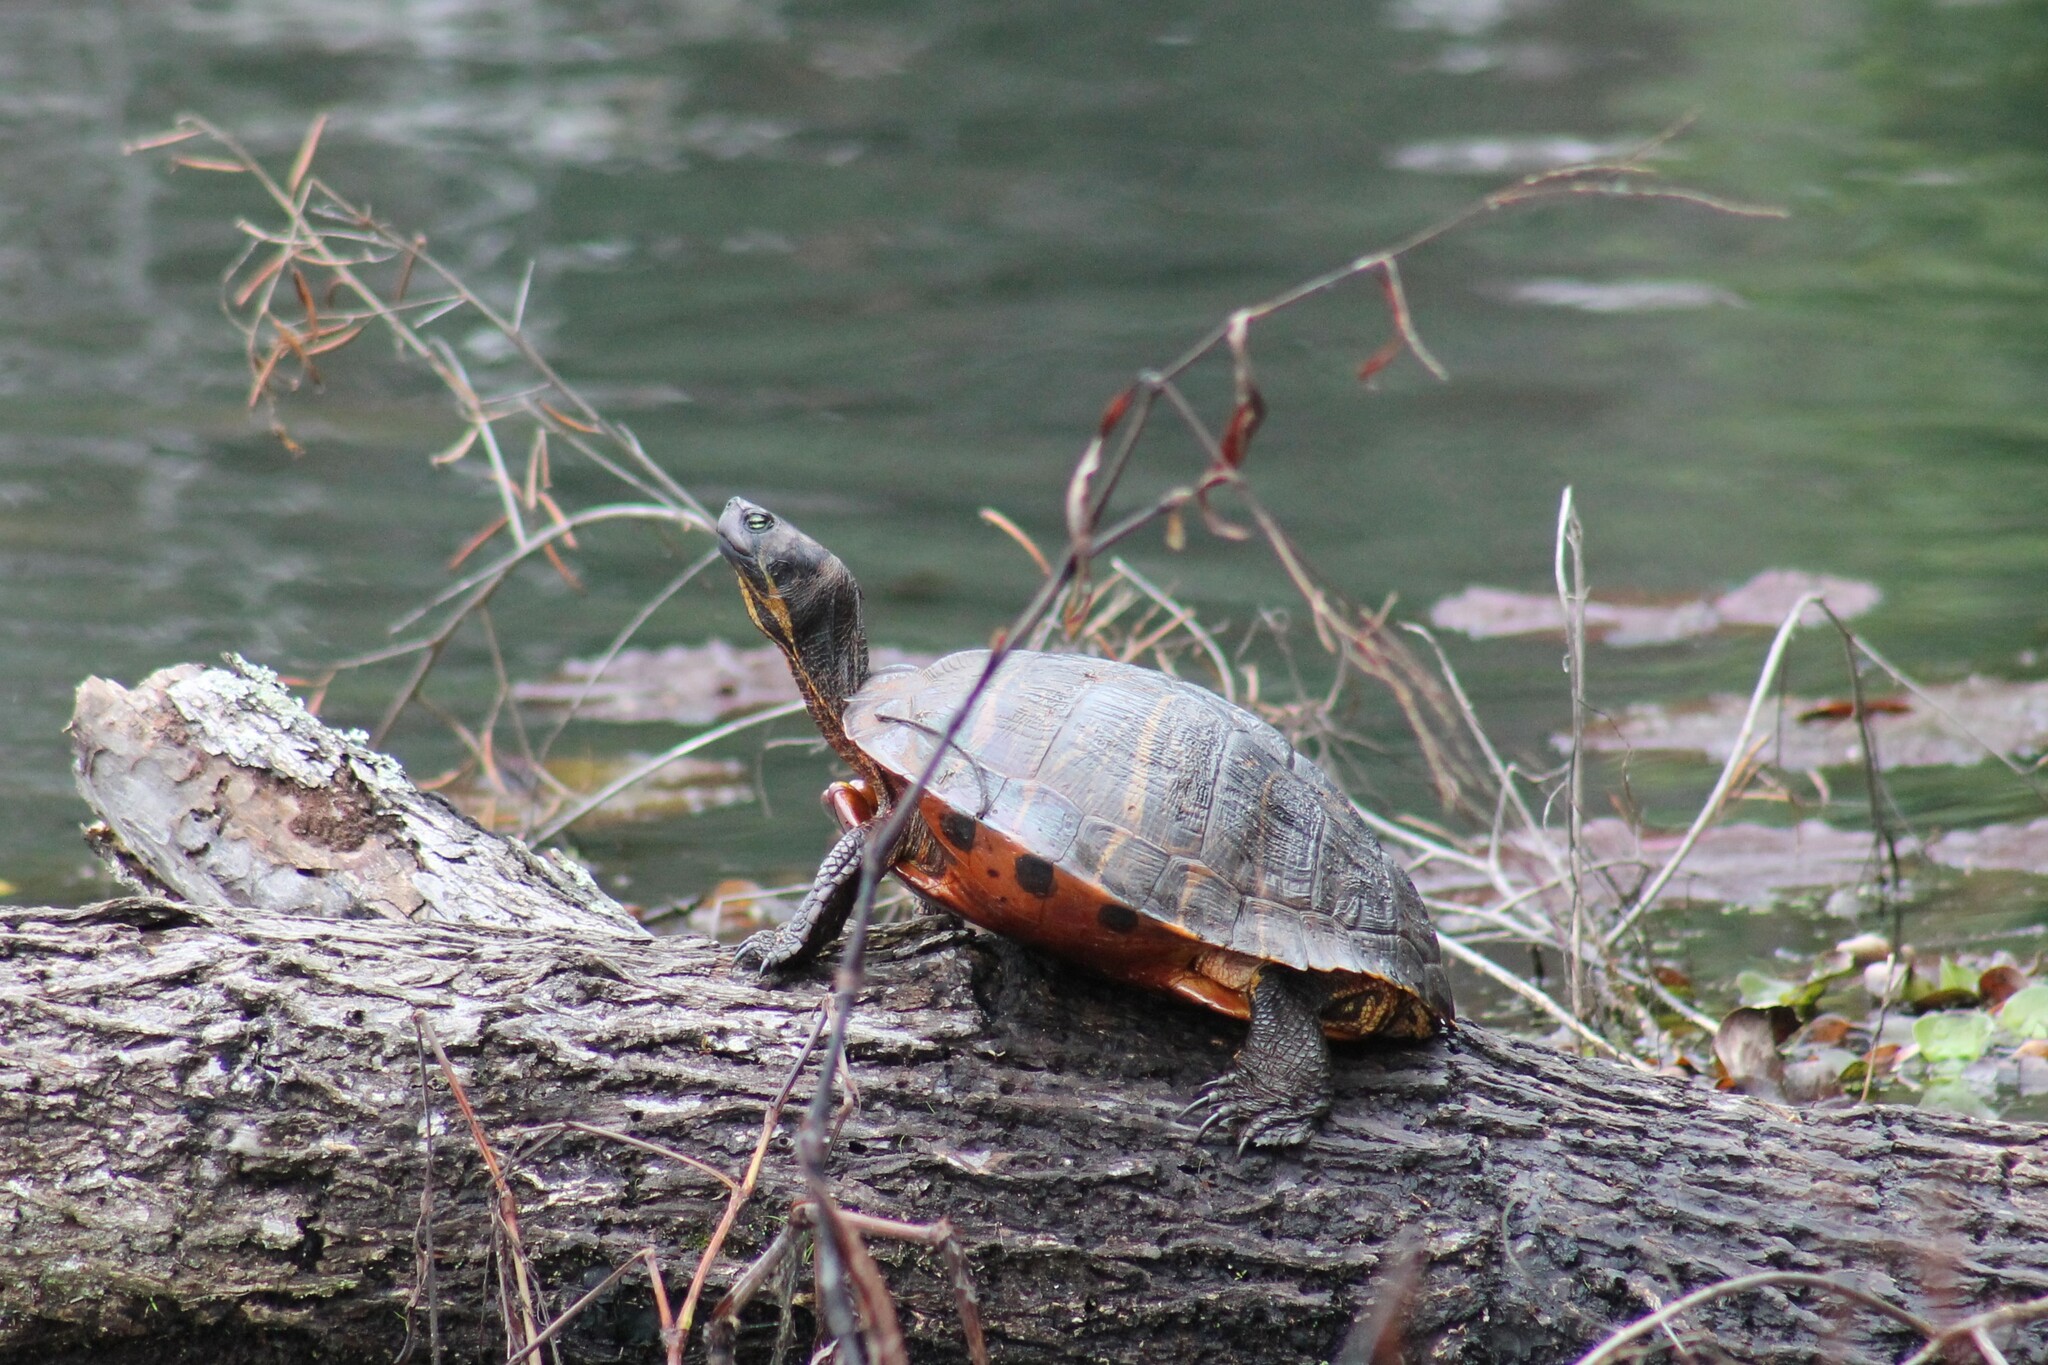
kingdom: Animalia
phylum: Chordata
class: Testudines
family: Emydidae
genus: Trachemys
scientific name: Trachemys scripta
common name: Slider
